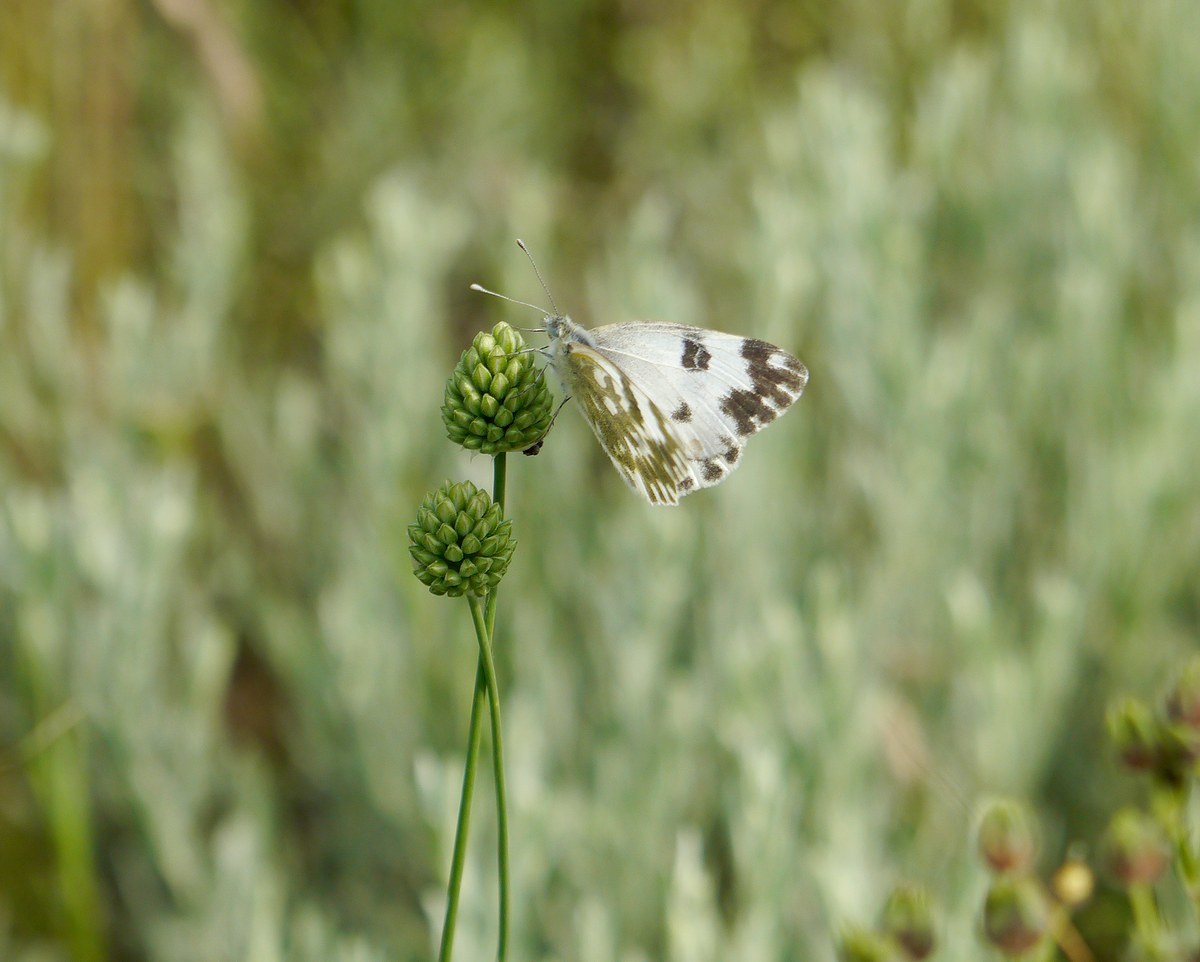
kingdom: Animalia
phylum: Arthropoda
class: Insecta
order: Lepidoptera
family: Pieridae
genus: Pontia
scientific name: Pontia edusa
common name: Eastern bath white
